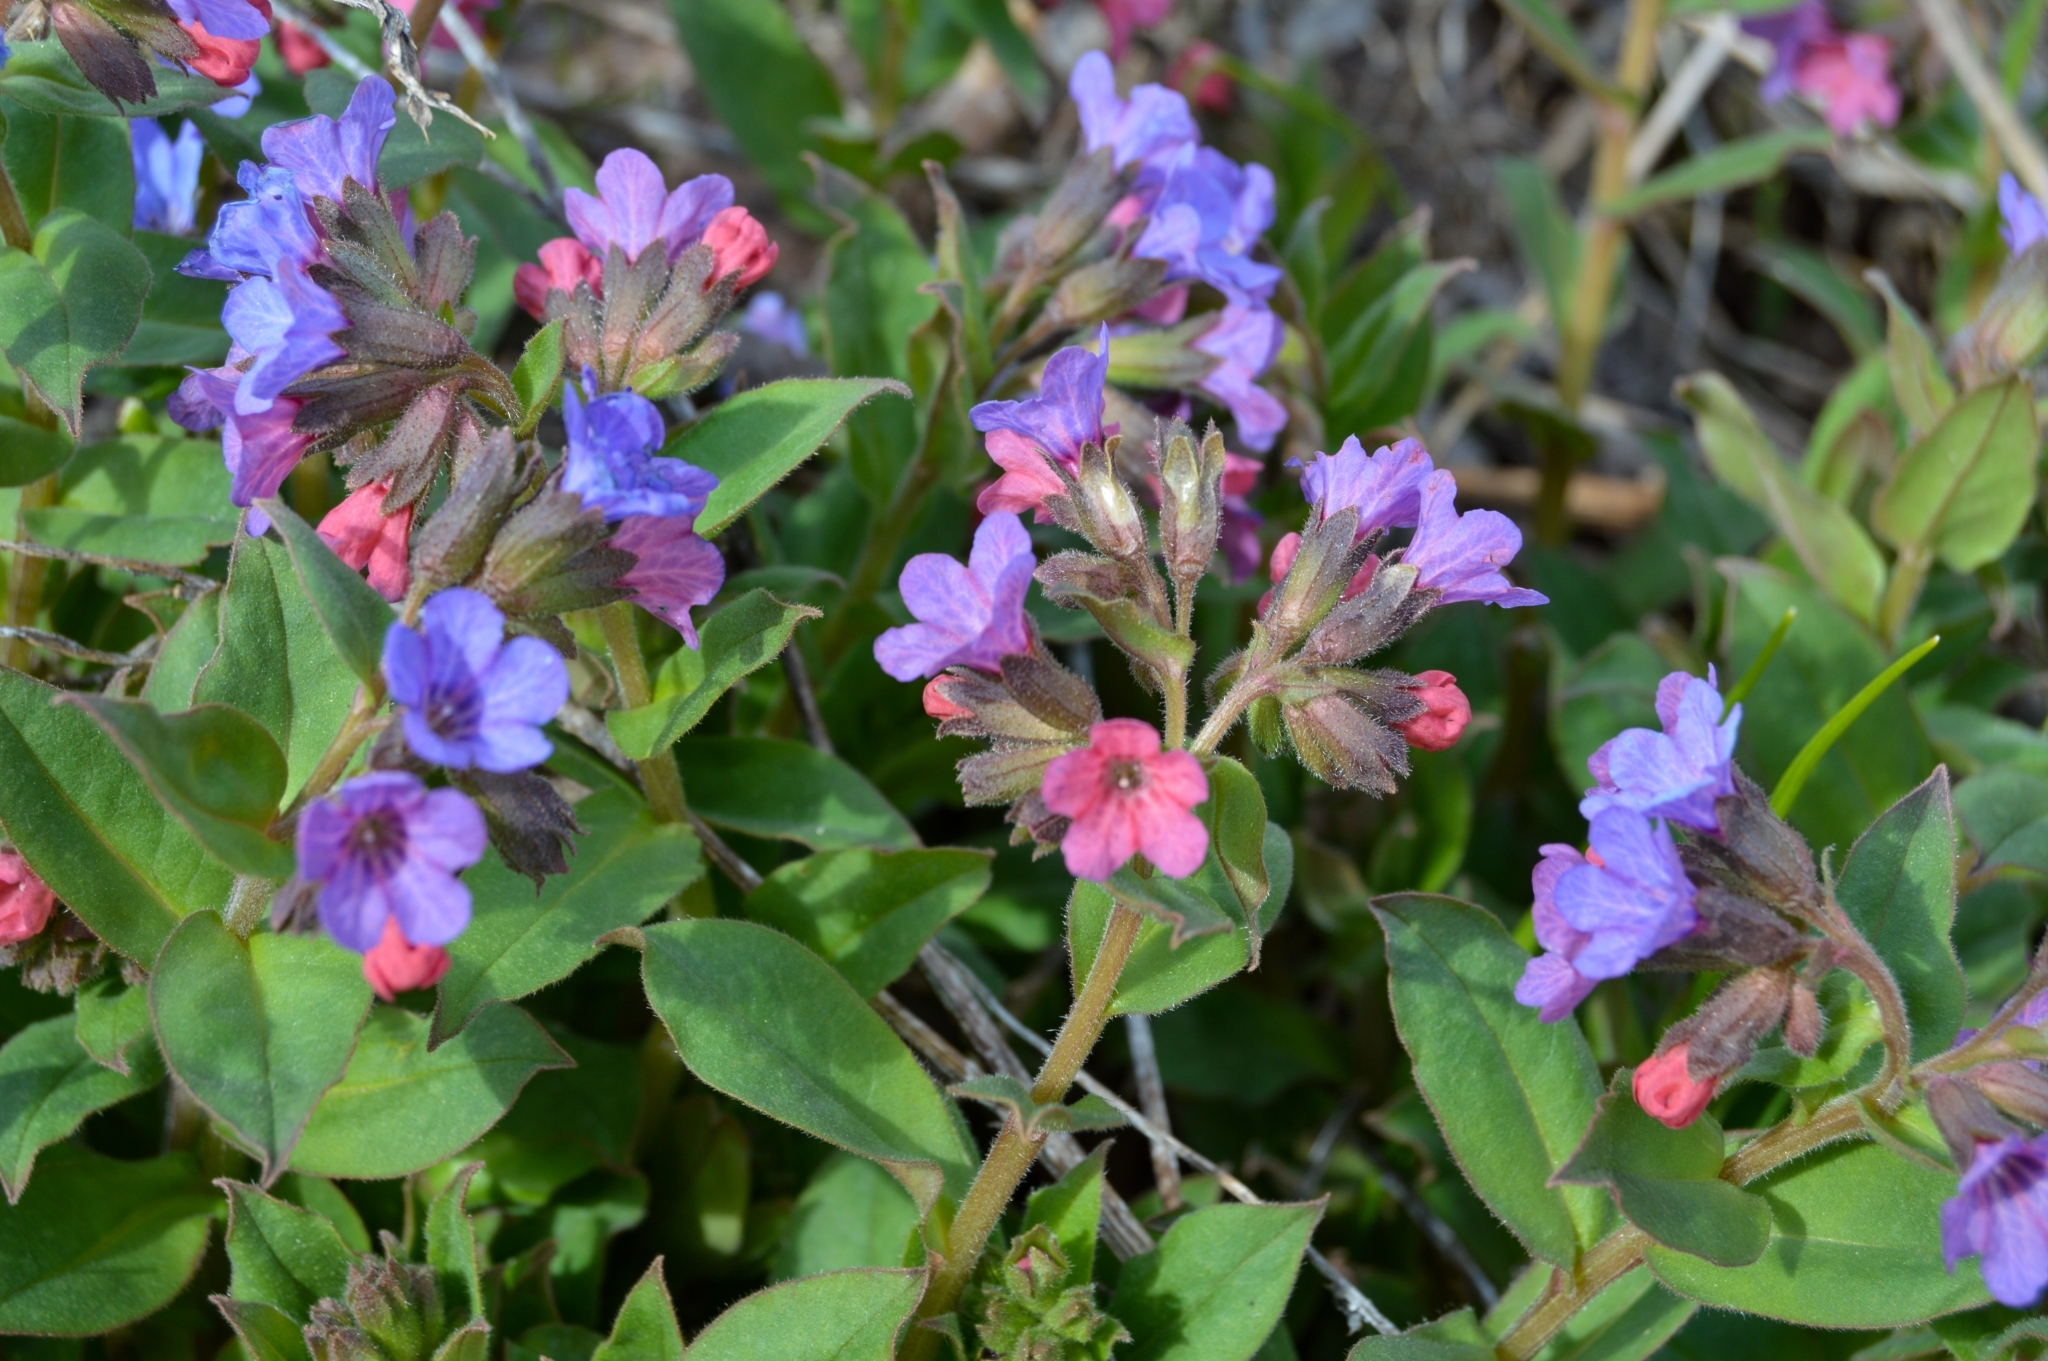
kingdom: Plantae
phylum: Tracheophyta
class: Magnoliopsida
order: Boraginales
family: Boraginaceae
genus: Pulmonaria
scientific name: Pulmonaria obscura
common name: Suffolk lungwort
